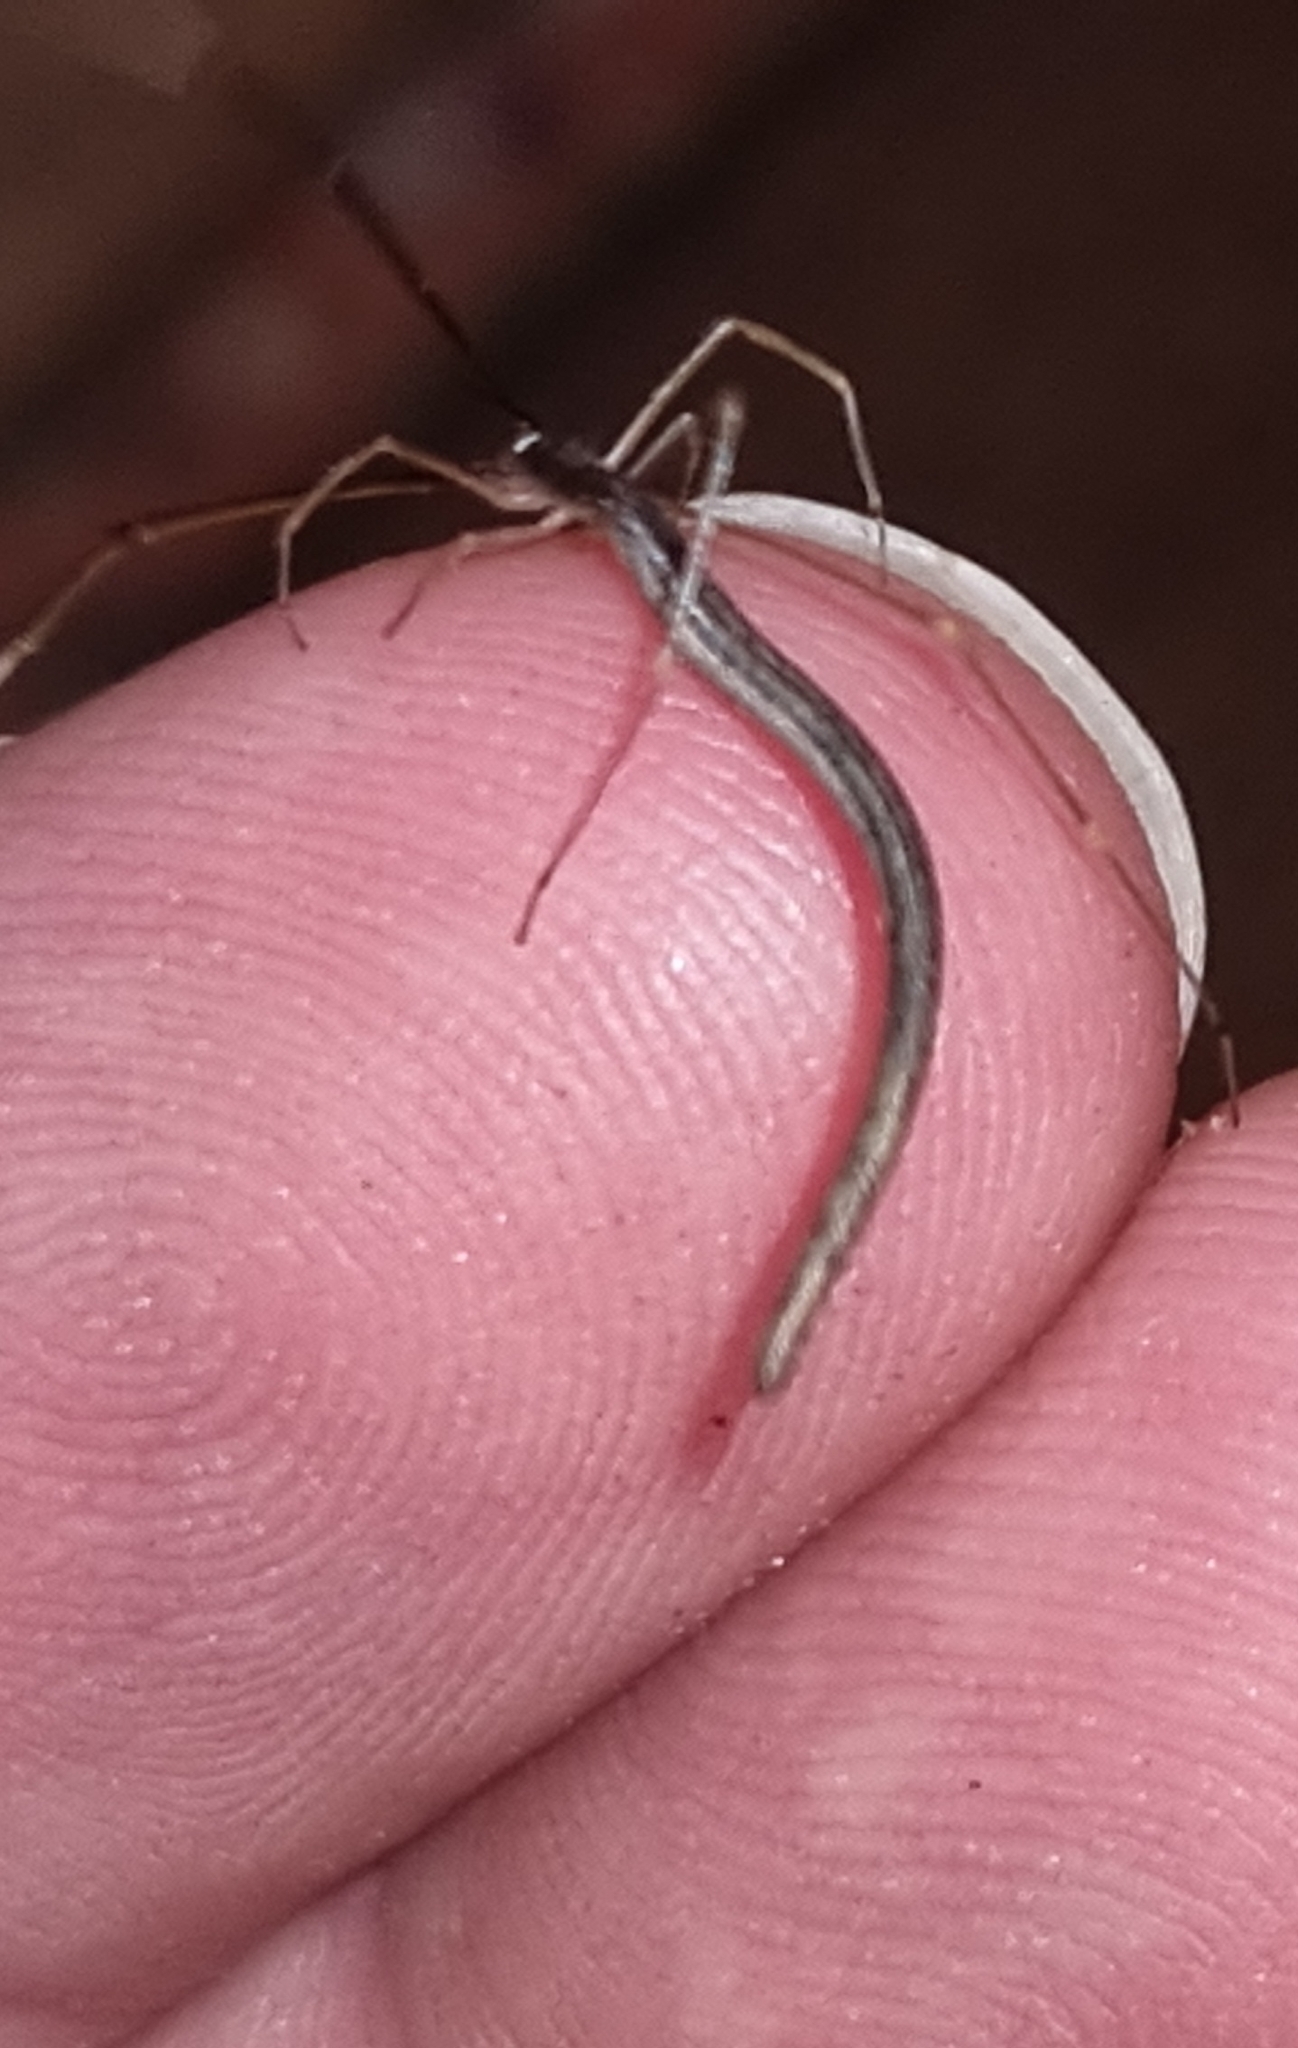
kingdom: Animalia
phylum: Arthropoda
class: Arachnida
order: Araneae
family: Theridiidae
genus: Ariamnes
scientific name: Ariamnes colubrinus
